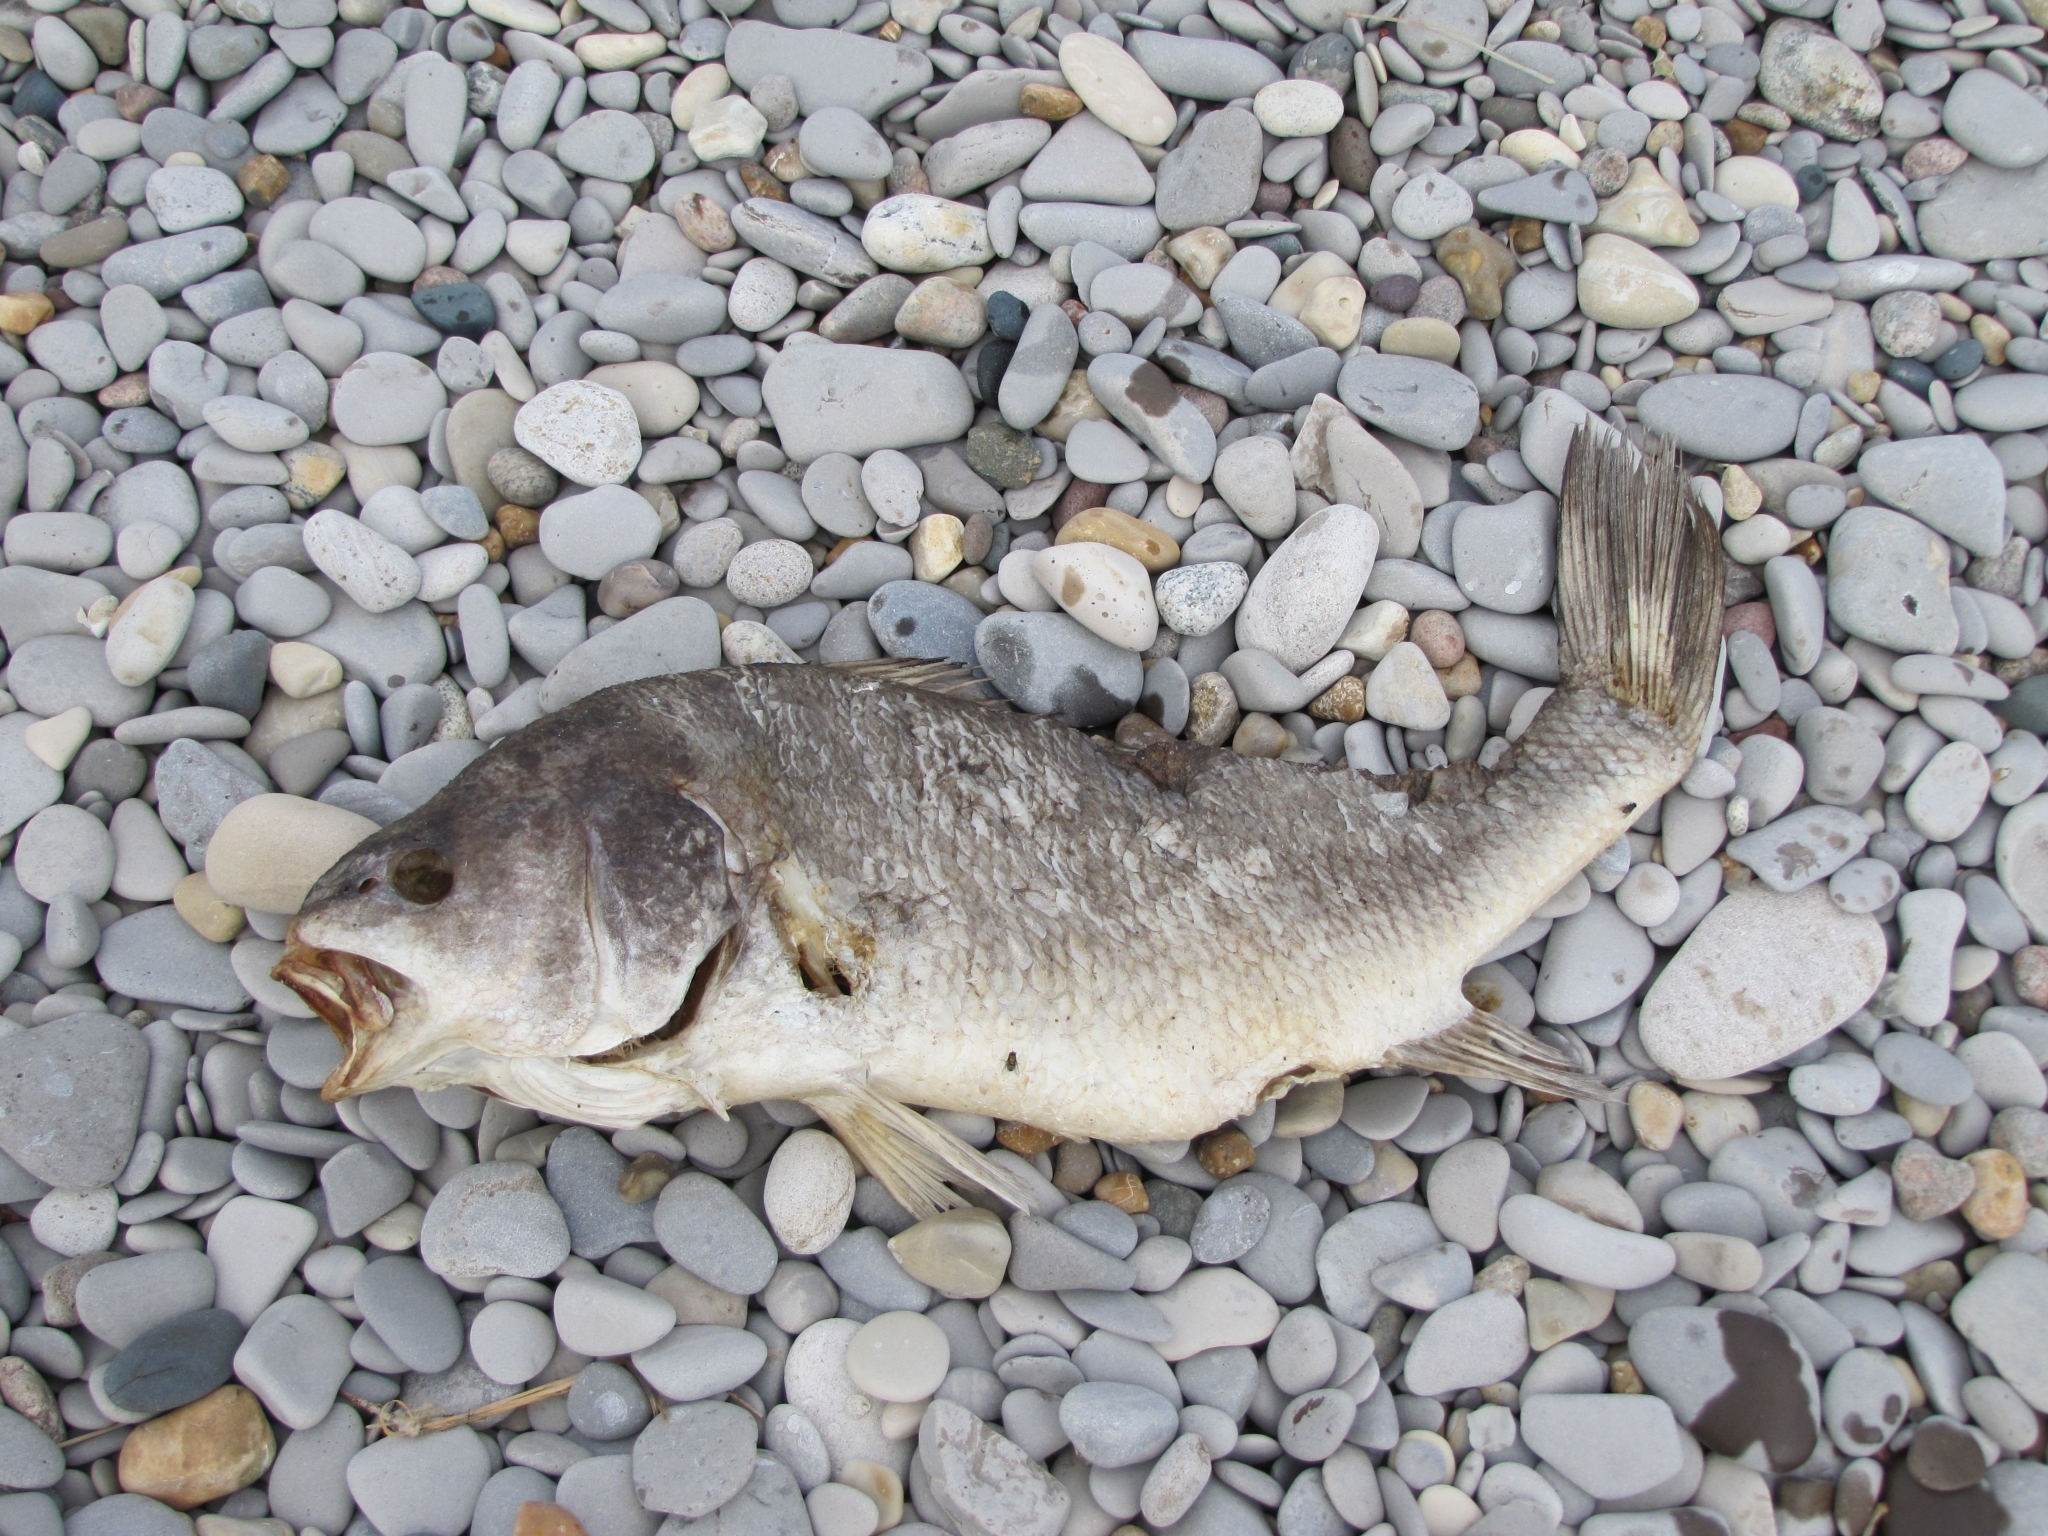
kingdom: Animalia
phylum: Chordata
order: Perciformes
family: Sciaenidae
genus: Aplodinotus
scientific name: Aplodinotus grunniens
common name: Freshwater drum
